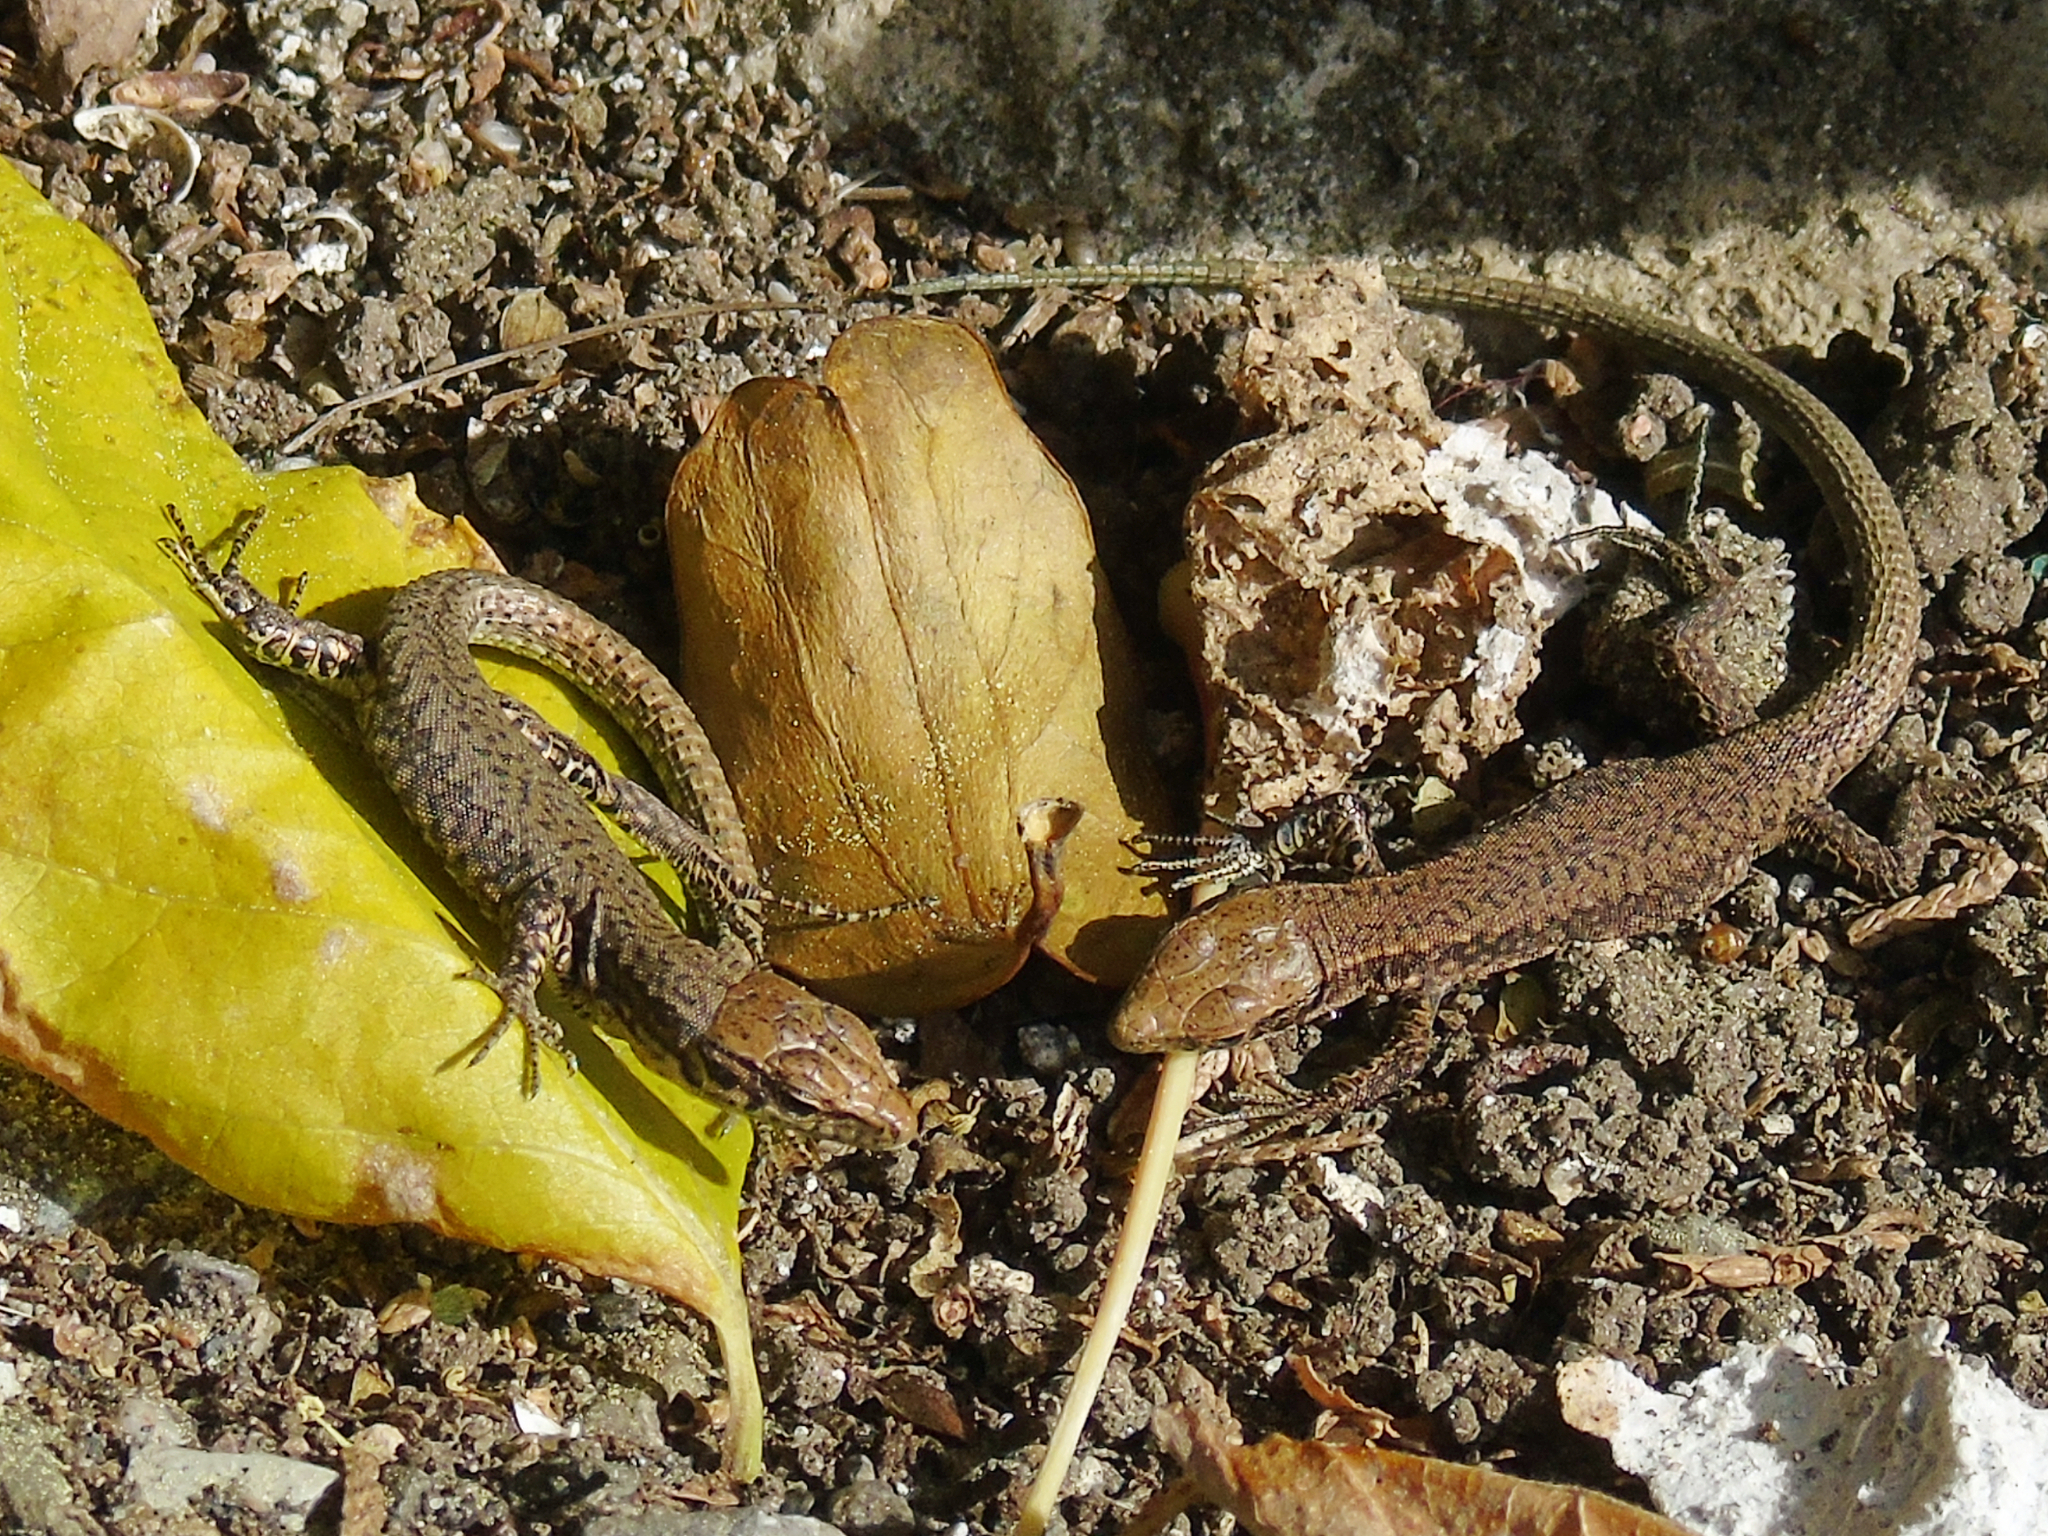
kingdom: Animalia
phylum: Chordata
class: Squamata
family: Lacertidae
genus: Darevskia
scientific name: Darevskia rudis
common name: Spiny-tailed lizard
